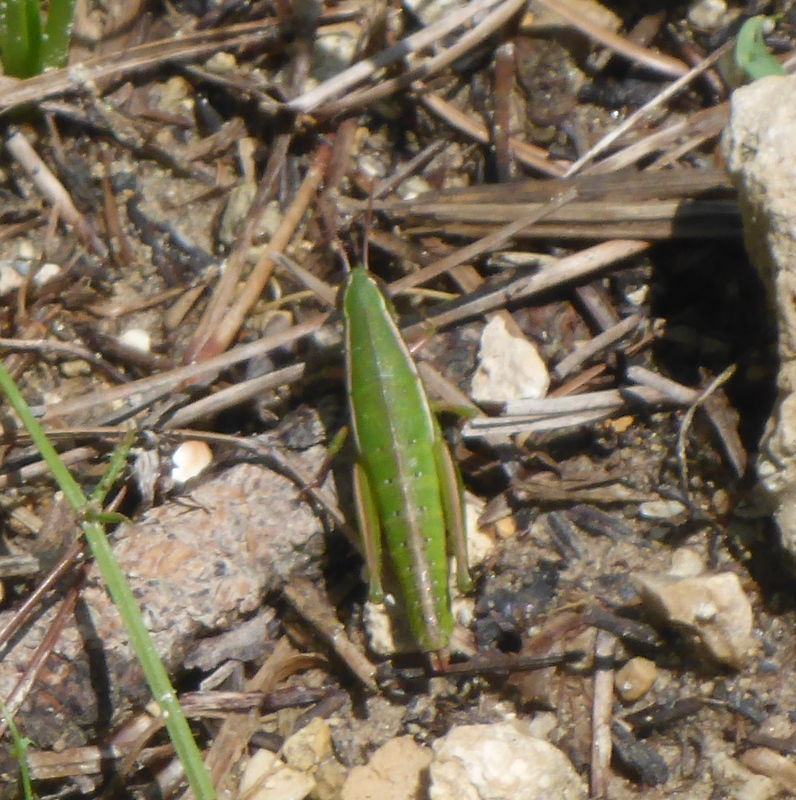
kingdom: Animalia
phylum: Arthropoda
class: Insecta
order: Orthoptera
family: Acrididae
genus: Aptenopedes
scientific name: Aptenopedes appalachee
